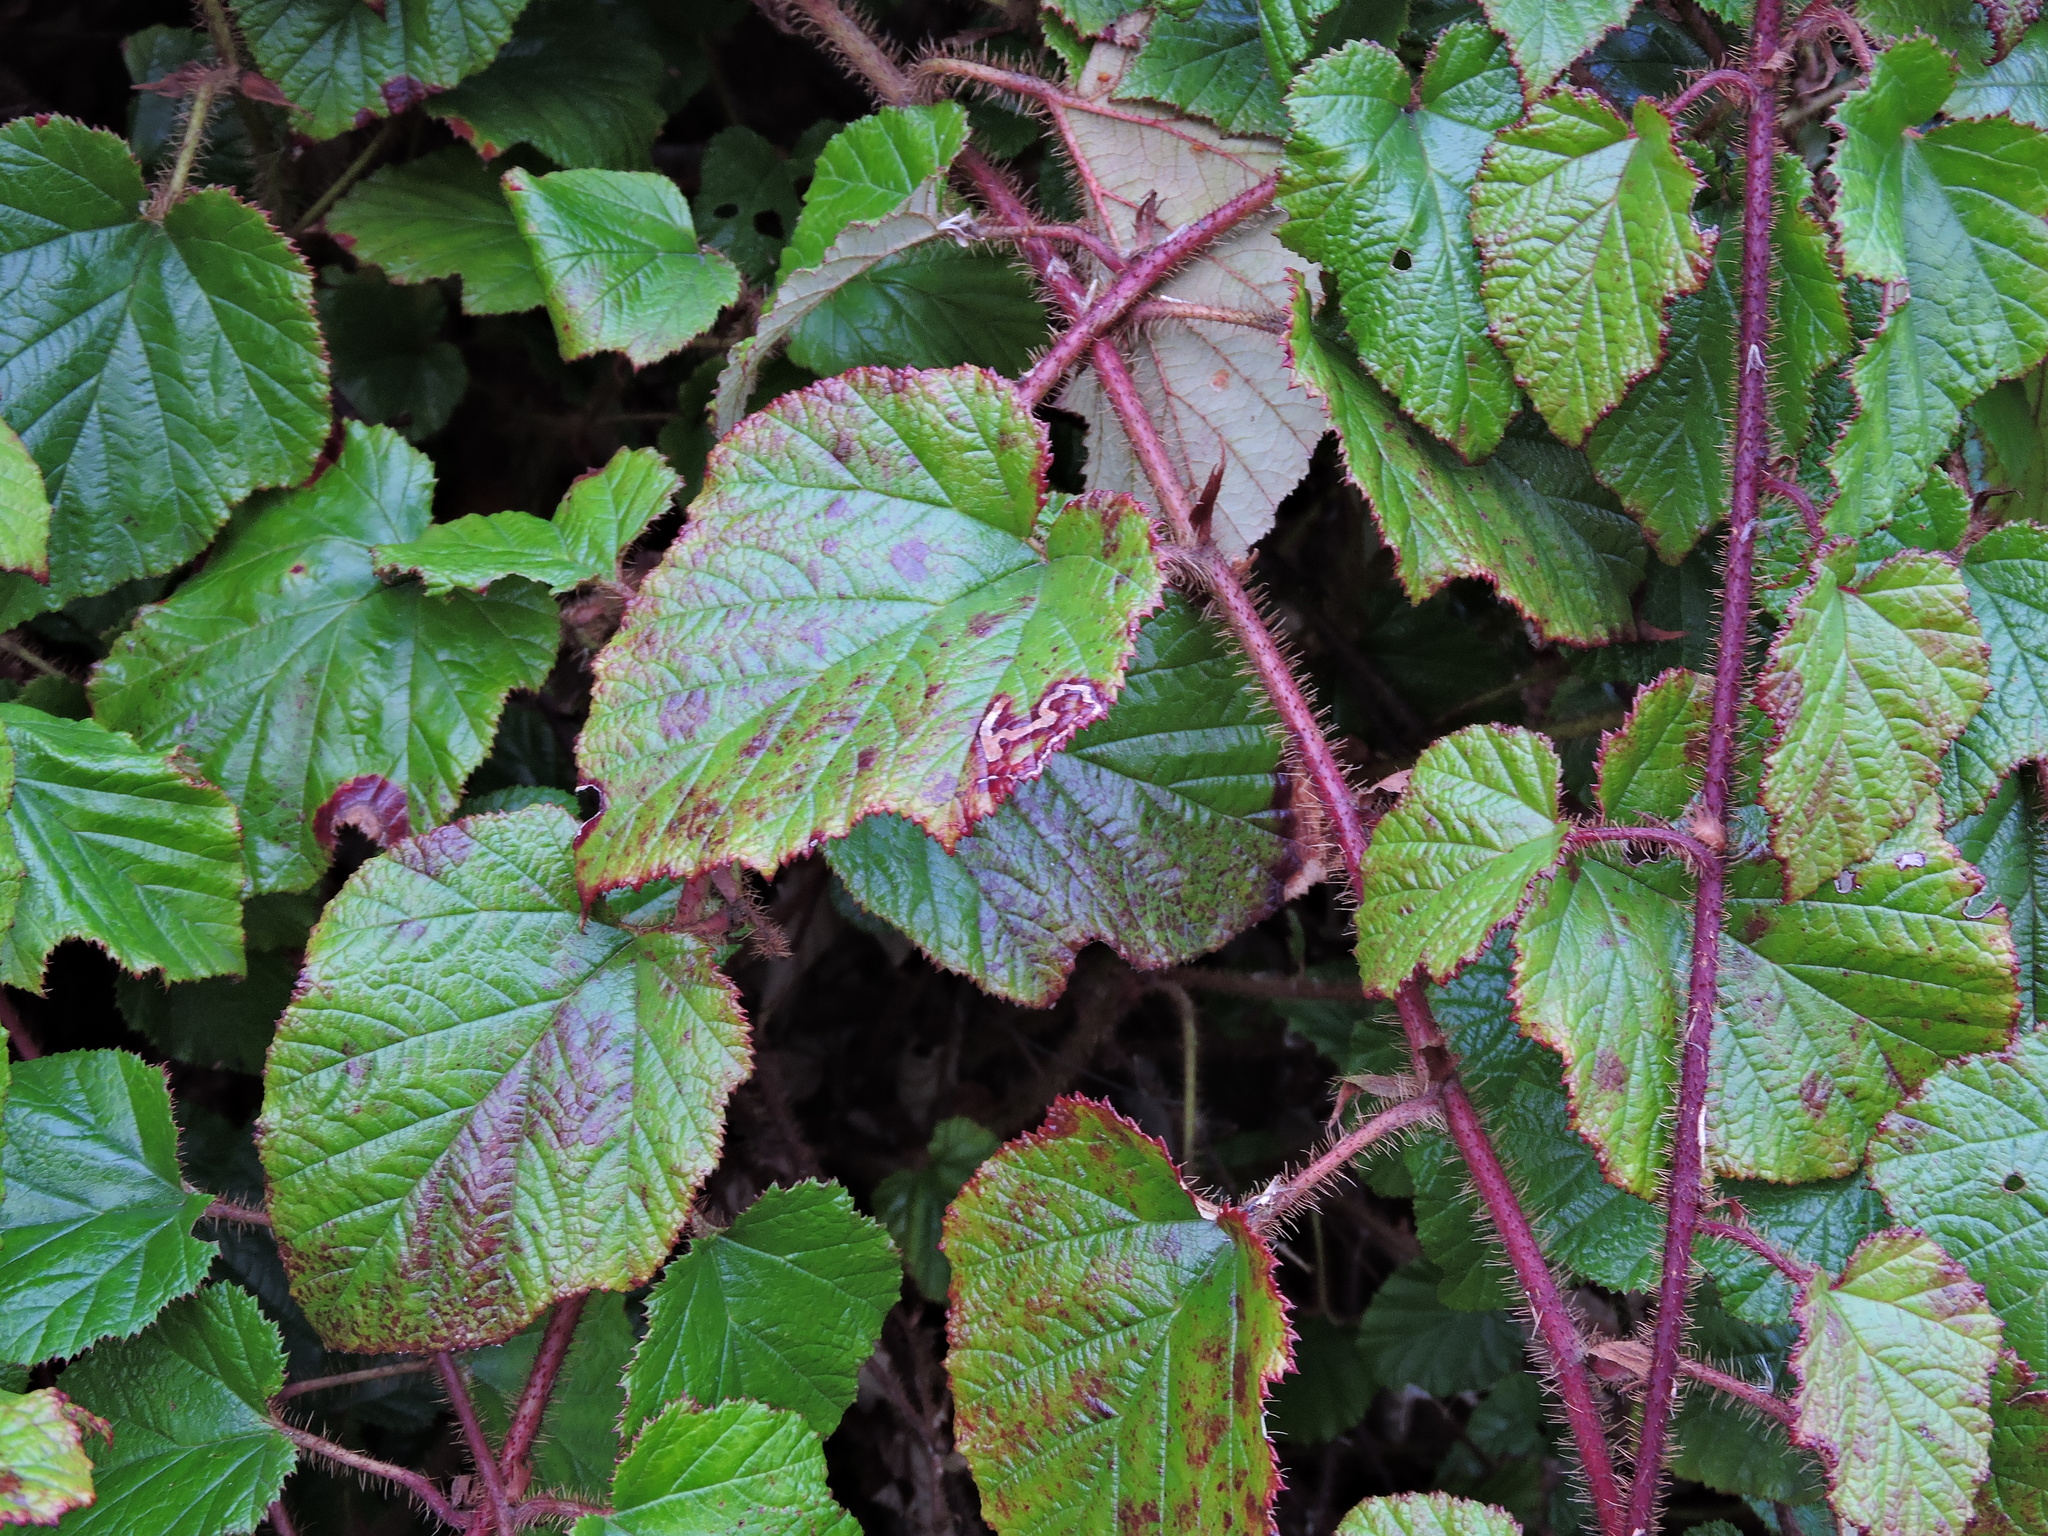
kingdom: Animalia
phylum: Arthropoda
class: Insecta
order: Lepidoptera
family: Nepticulidae
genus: Stigmella
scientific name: Stigmella aurella
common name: Golden pigmy
